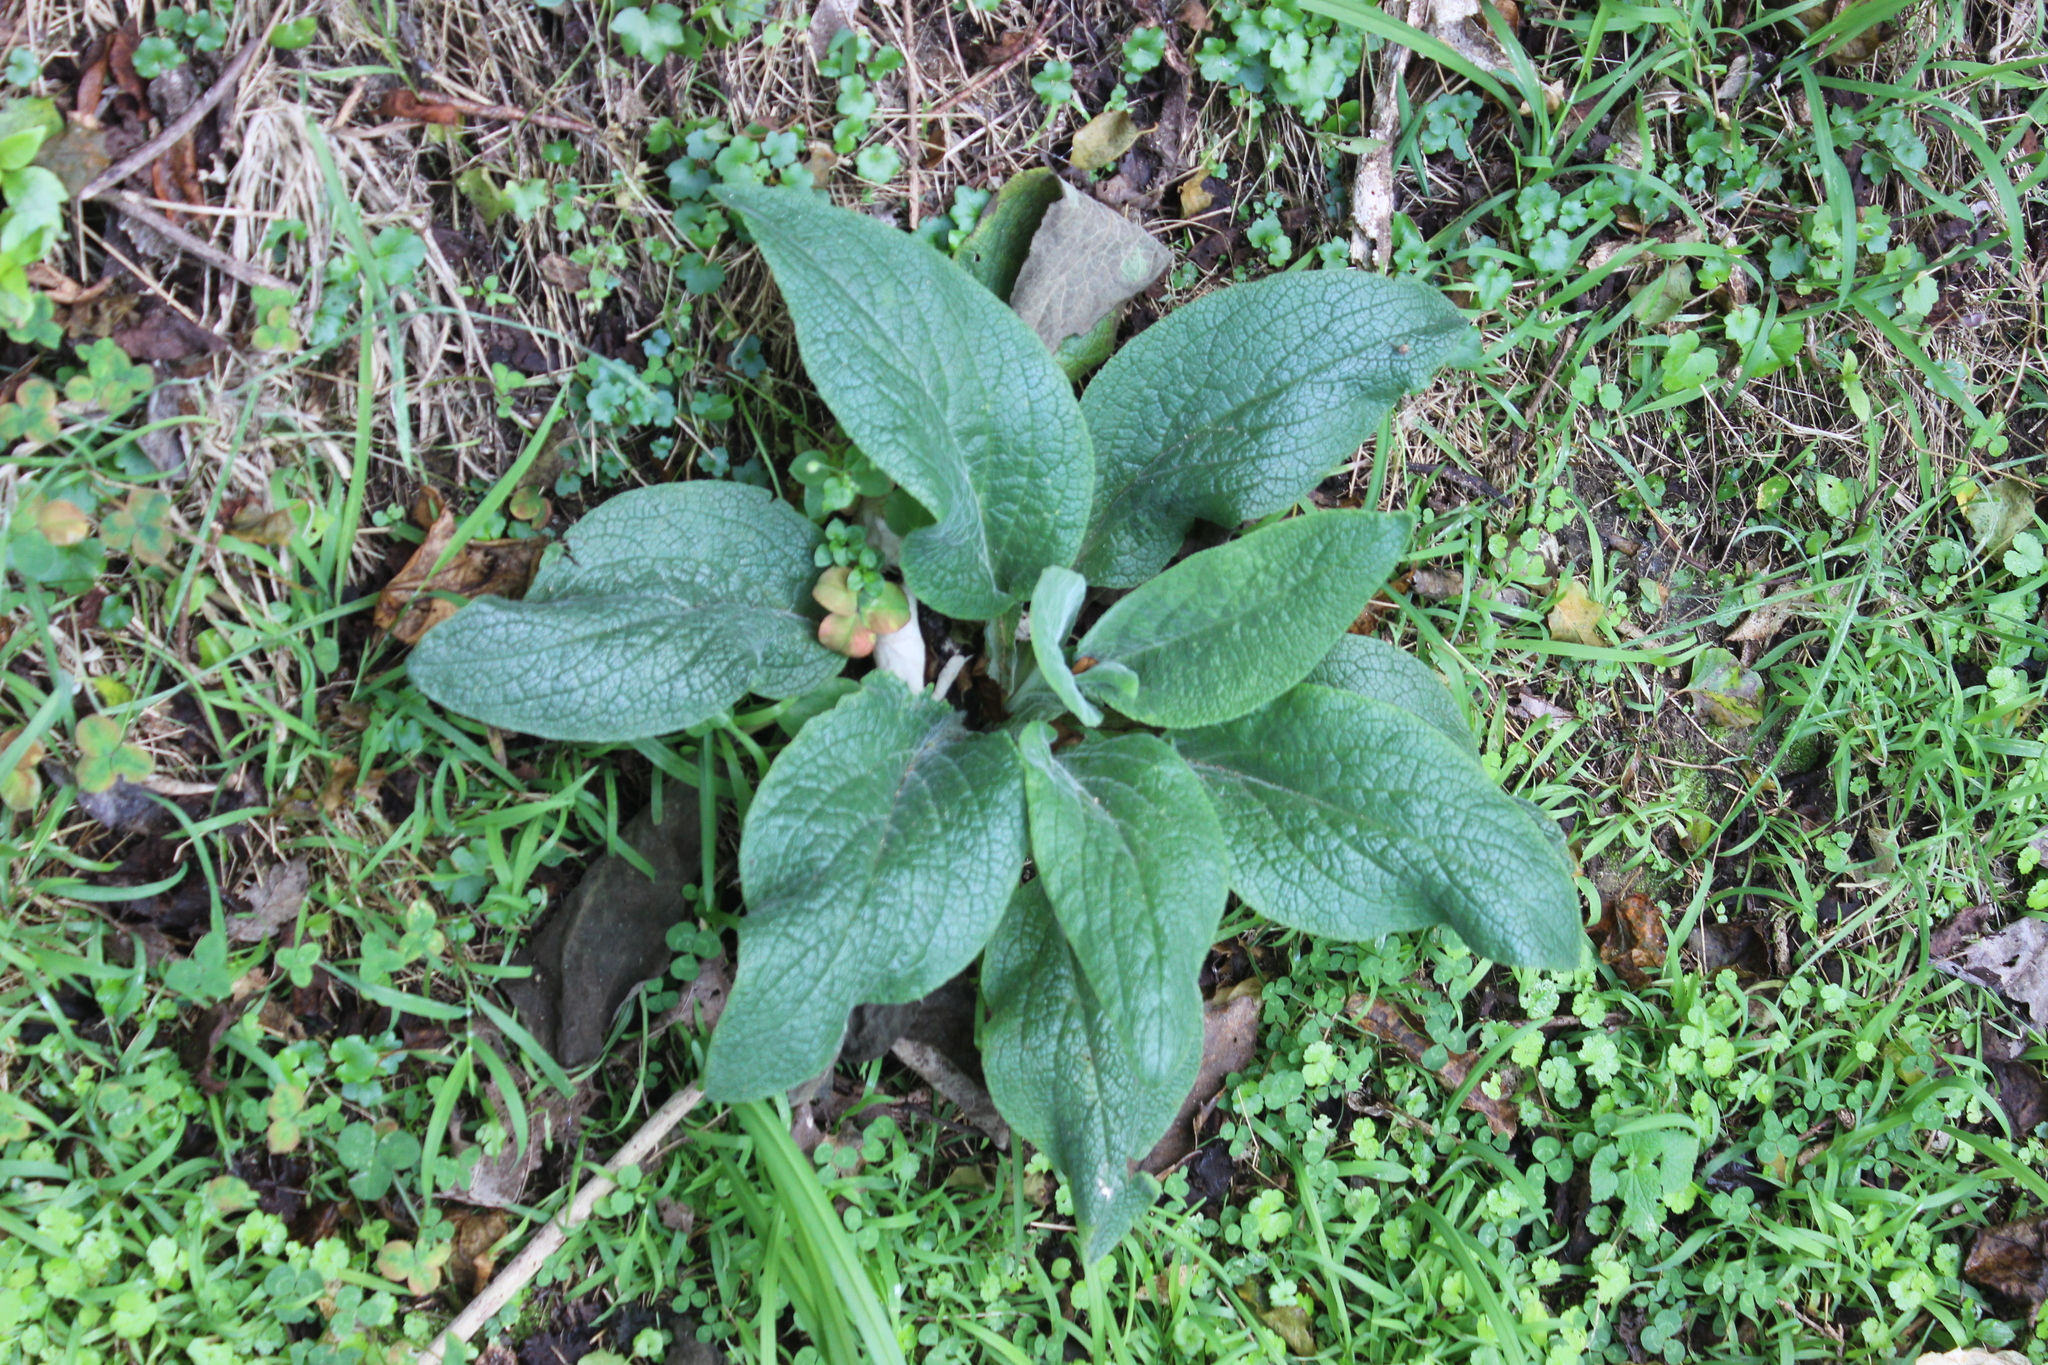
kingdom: Plantae
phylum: Tracheophyta
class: Magnoliopsida
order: Lamiales
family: Plantaginaceae
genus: Digitalis
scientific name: Digitalis purpurea
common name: Foxglove
